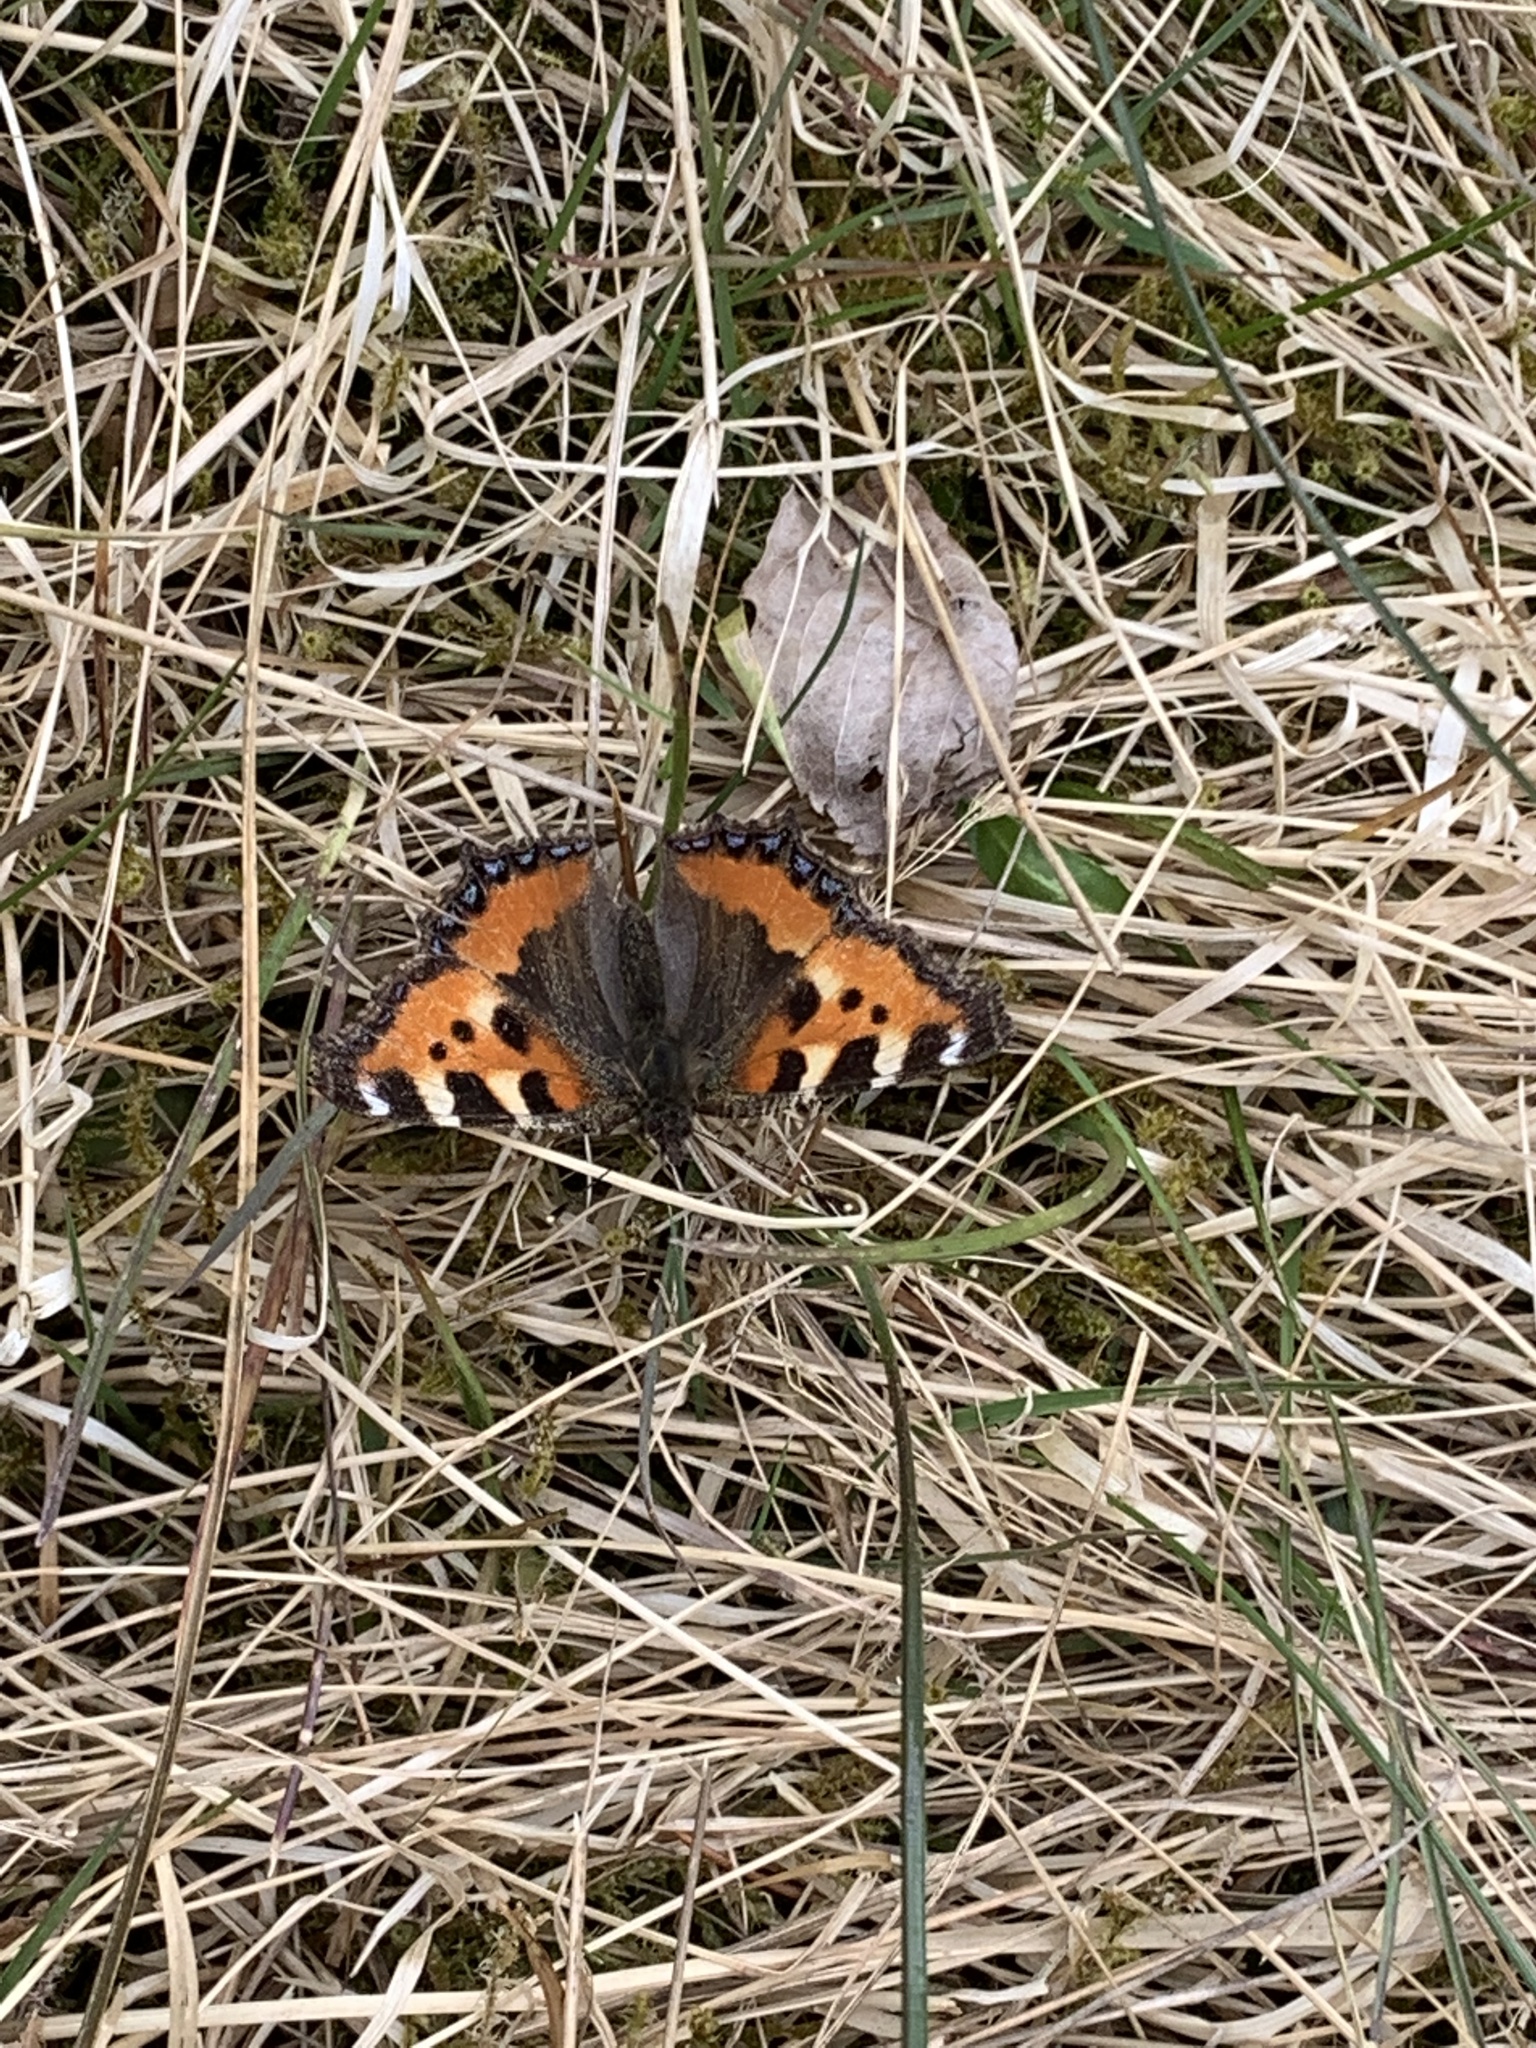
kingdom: Animalia
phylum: Arthropoda
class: Insecta
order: Lepidoptera
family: Nymphalidae
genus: Aglais
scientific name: Aglais urticae
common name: Small tortoiseshell
